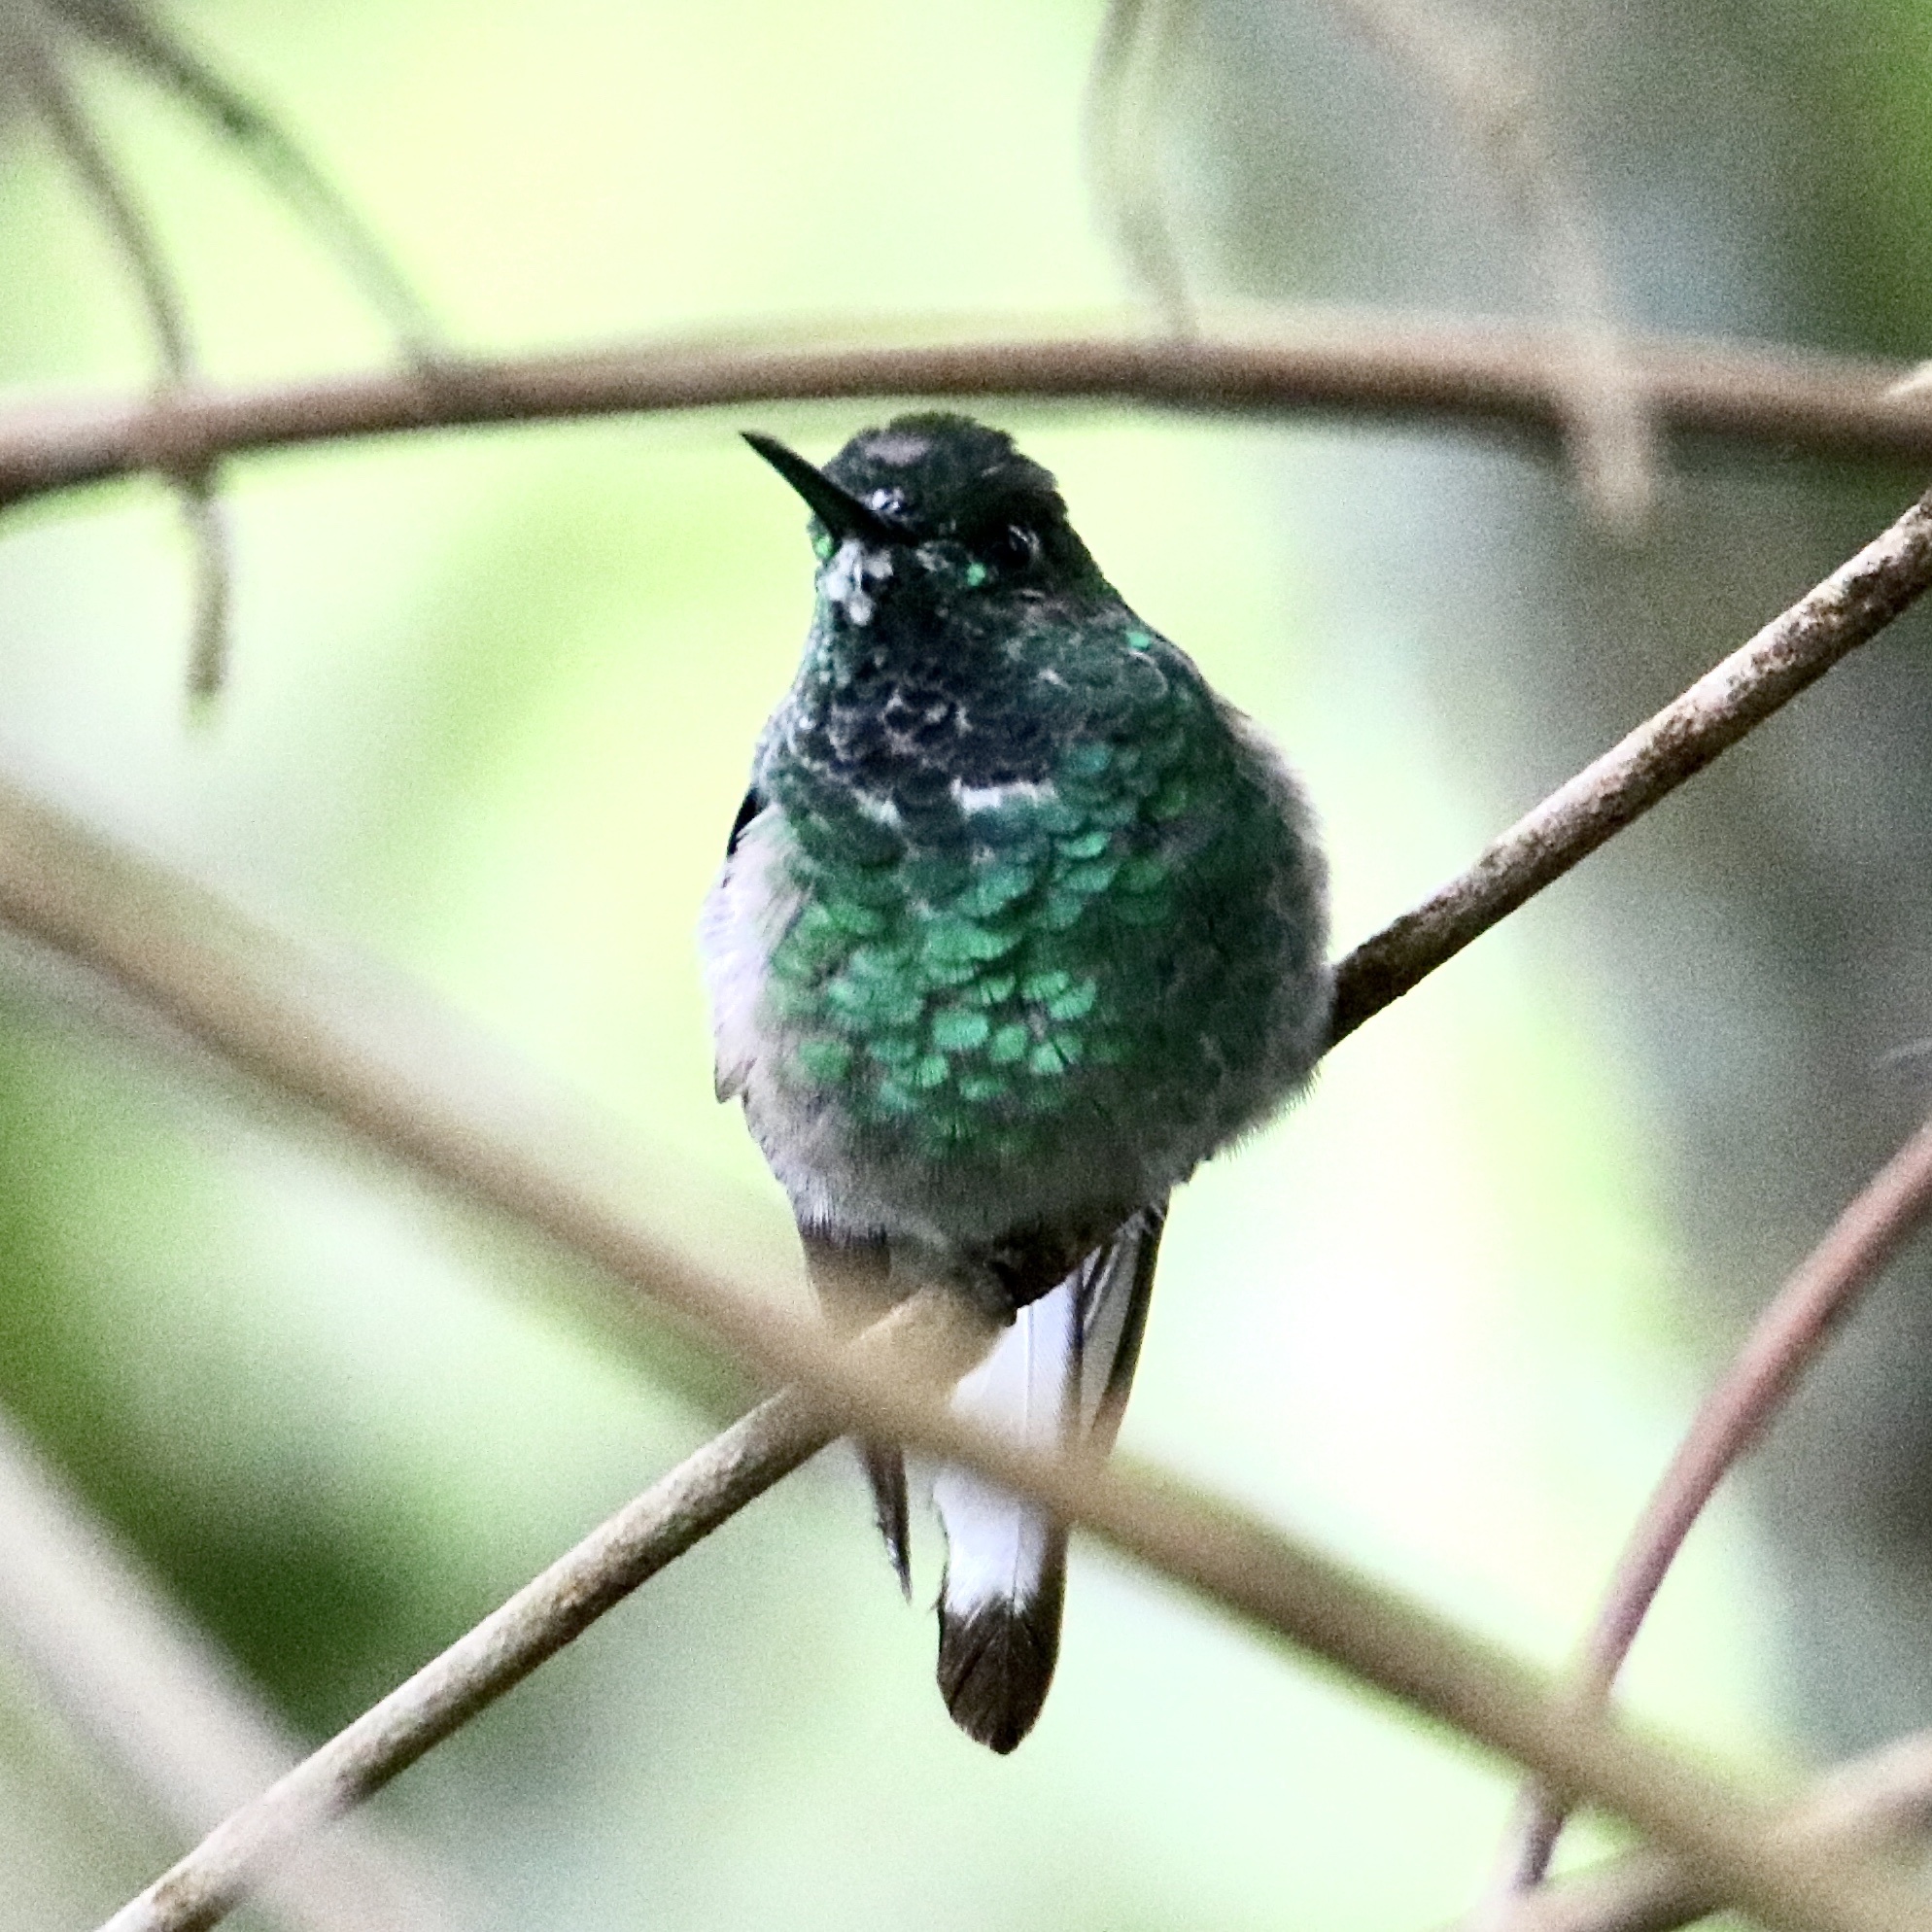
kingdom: Animalia
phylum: Chordata
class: Aves
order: Apodiformes
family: Trochilidae
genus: Eupherusa
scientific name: Eupherusa eximia
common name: Stripe-tailed hummingbird
